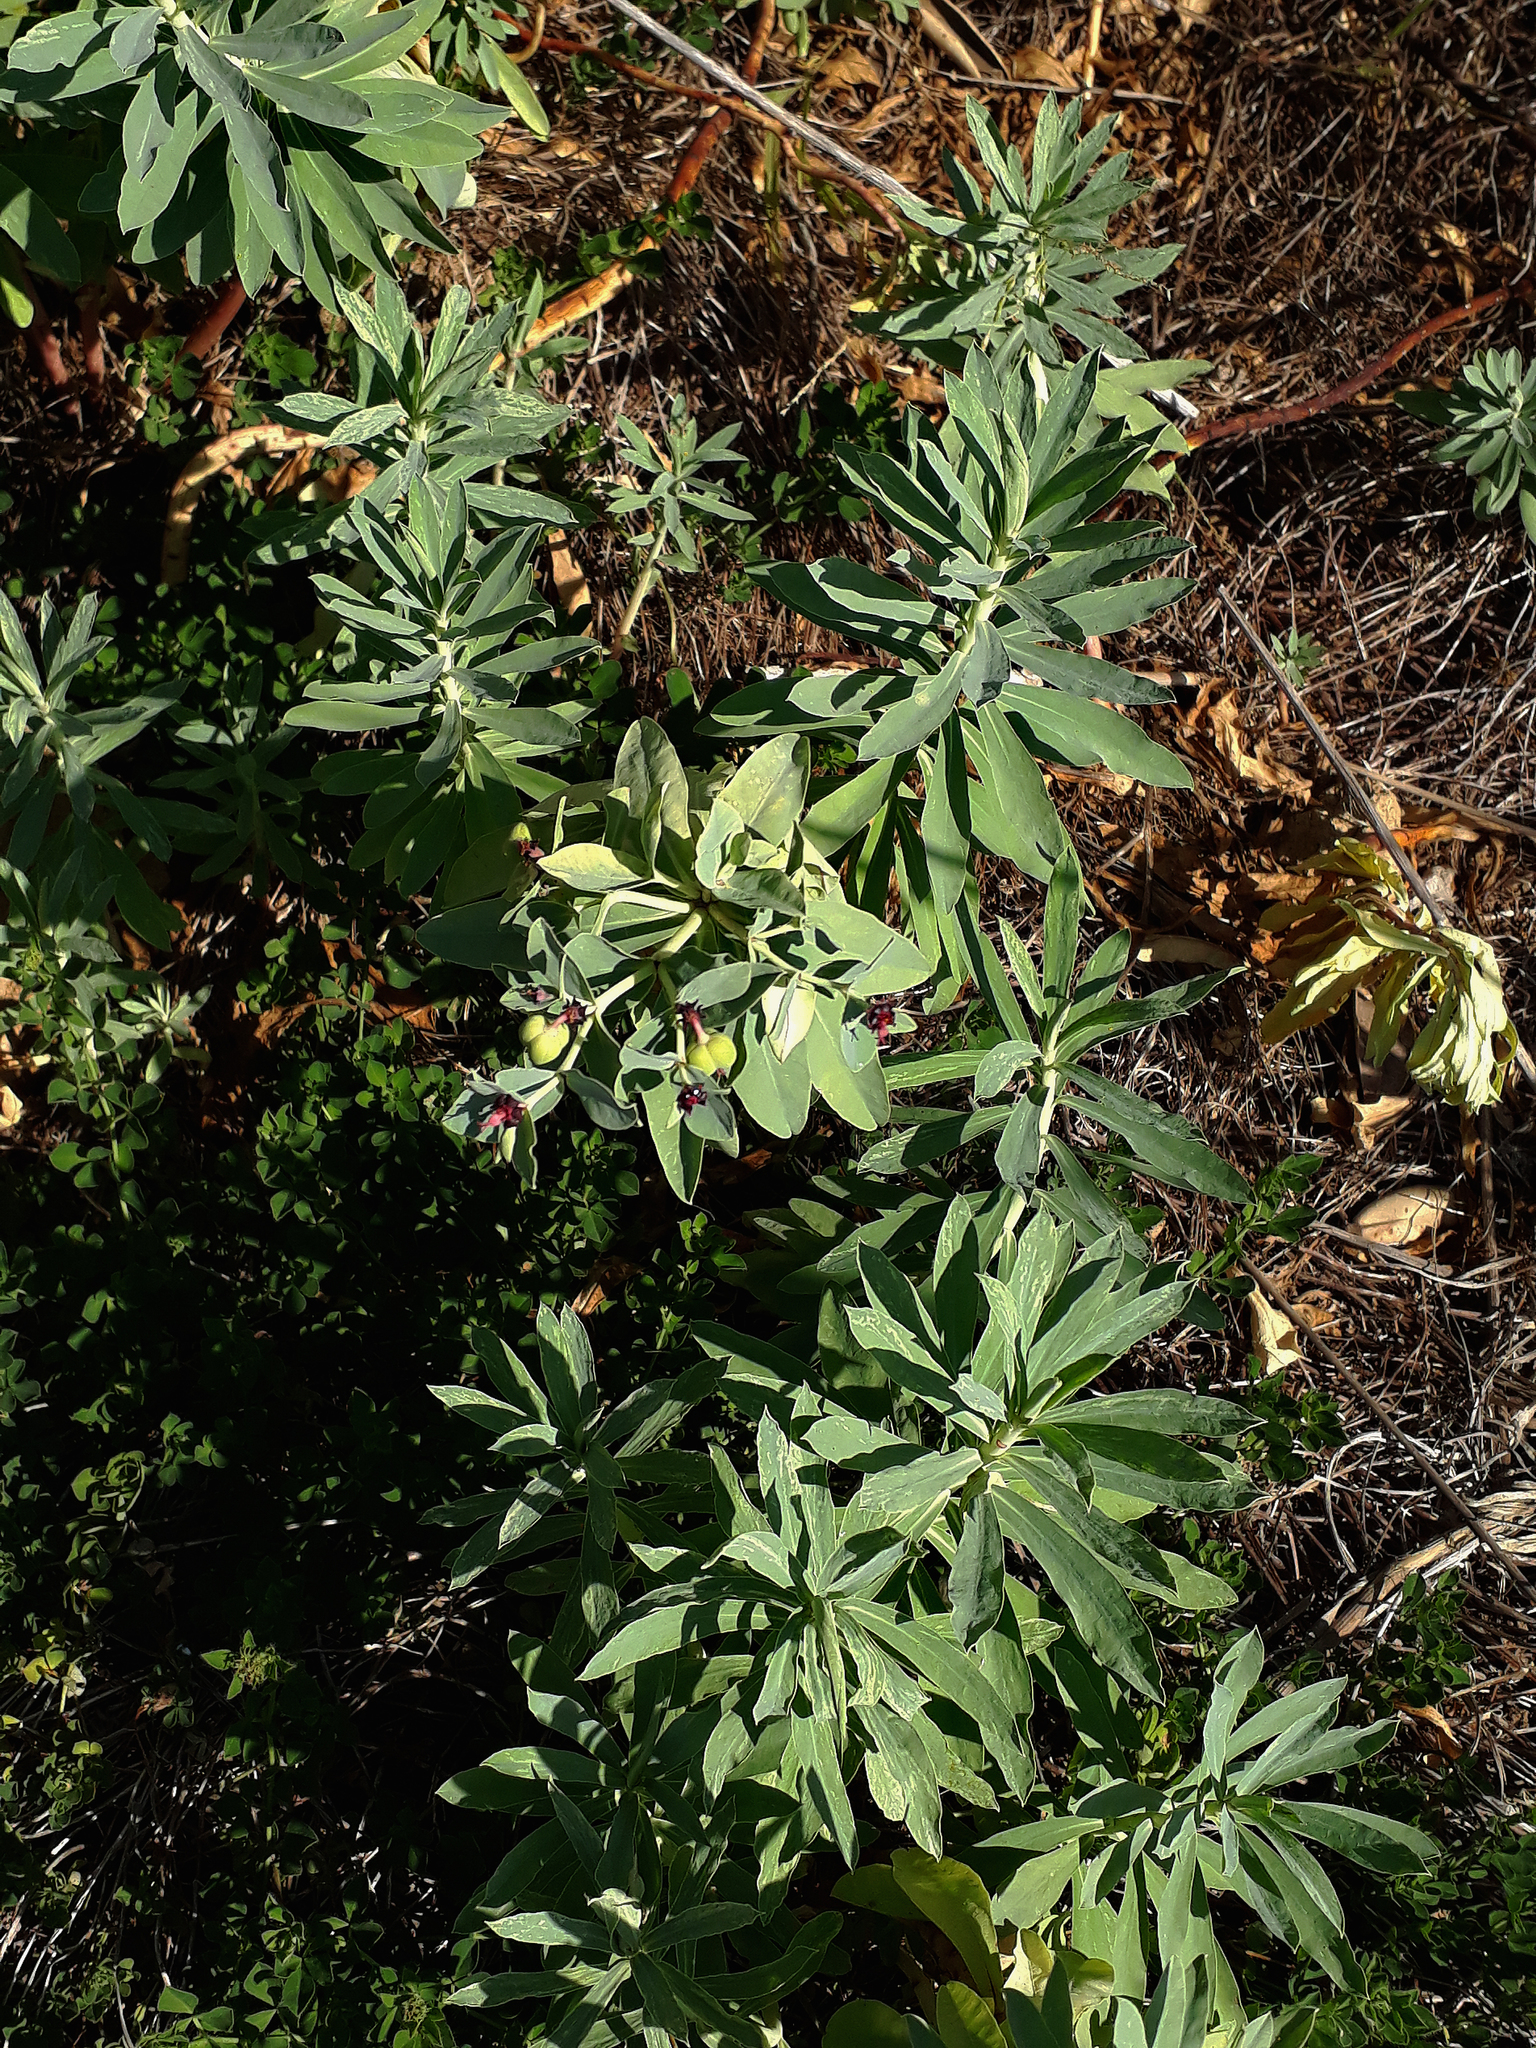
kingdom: Plantae
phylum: Tracheophyta
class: Magnoliopsida
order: Malpighiales
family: Euphorbiaceae
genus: Euphorbia
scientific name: Euphorbia glauca
